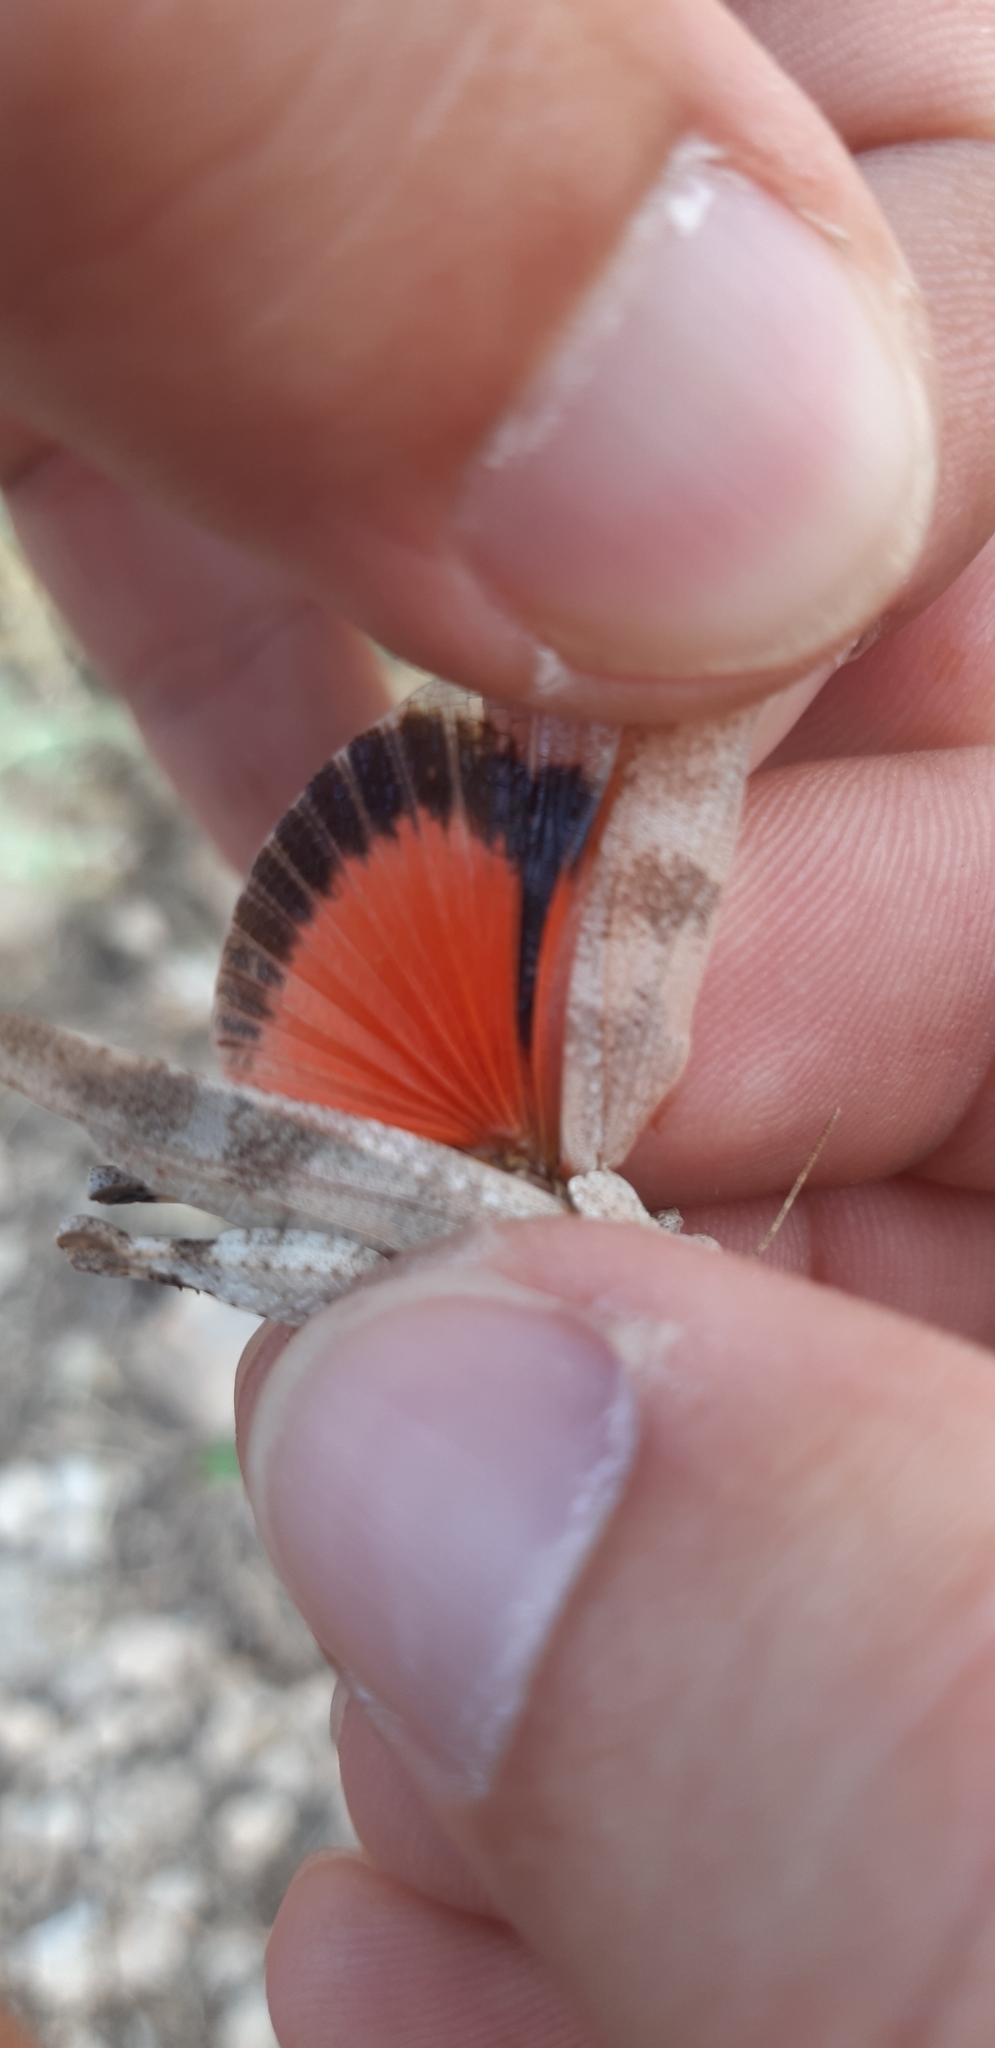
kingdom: Animalia
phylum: Arthropoda
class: Insecta
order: Orthoptera
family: Acrididae
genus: Oedipoda
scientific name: Oedipoda germanica
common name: Red band-winged grasshopper
